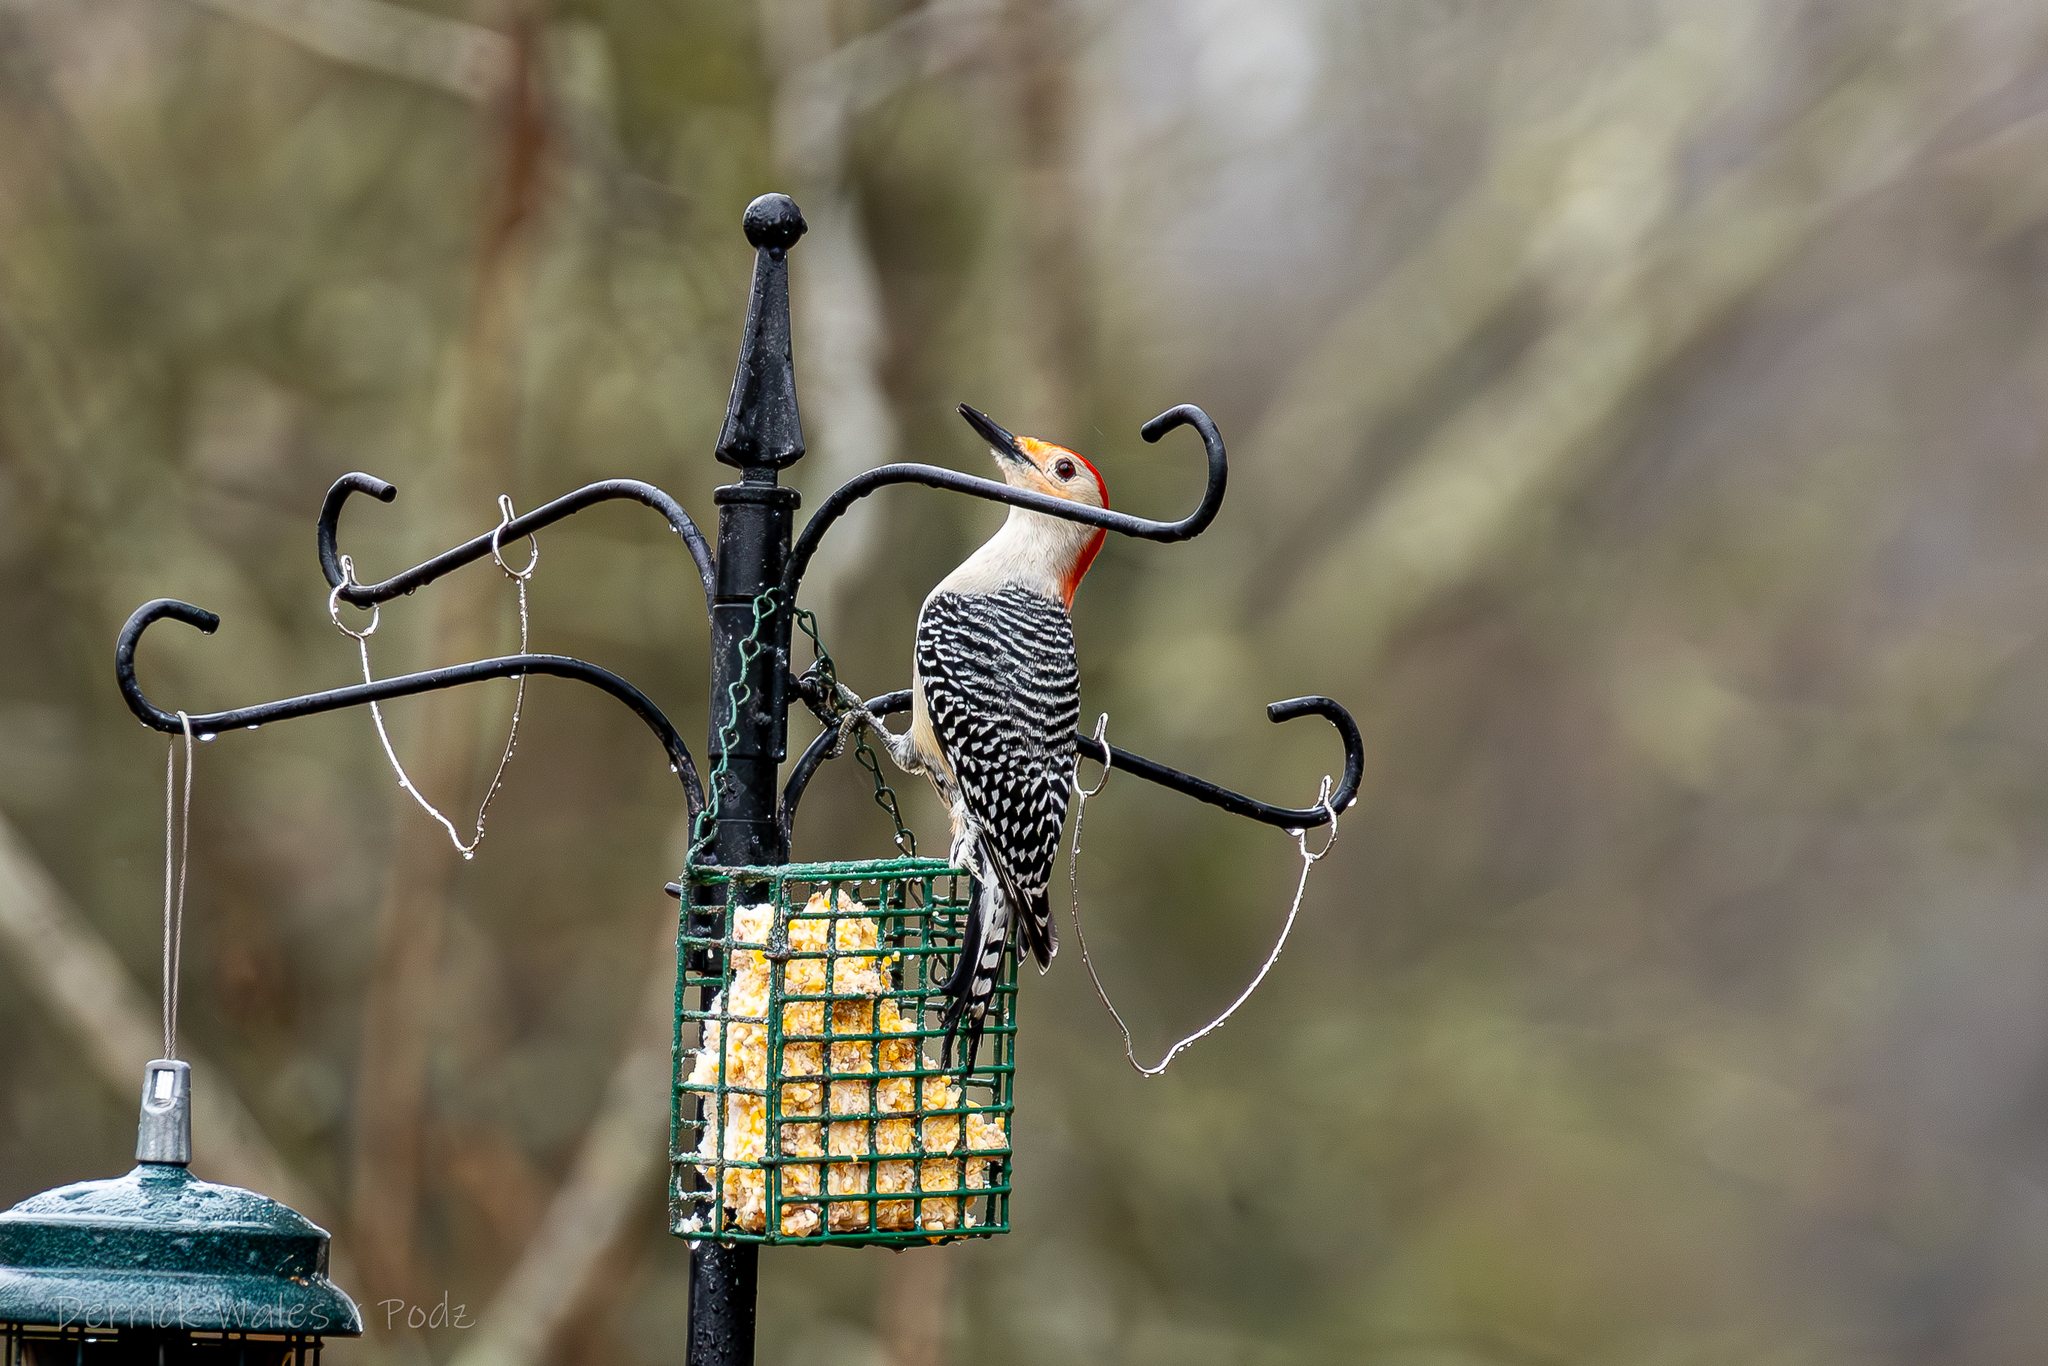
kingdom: Animalia
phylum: Chordata
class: Aves
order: Piciformes
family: Picidae
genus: Melanerpes
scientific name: Melanerpes carolinus
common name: Red-bellied woodpecker
